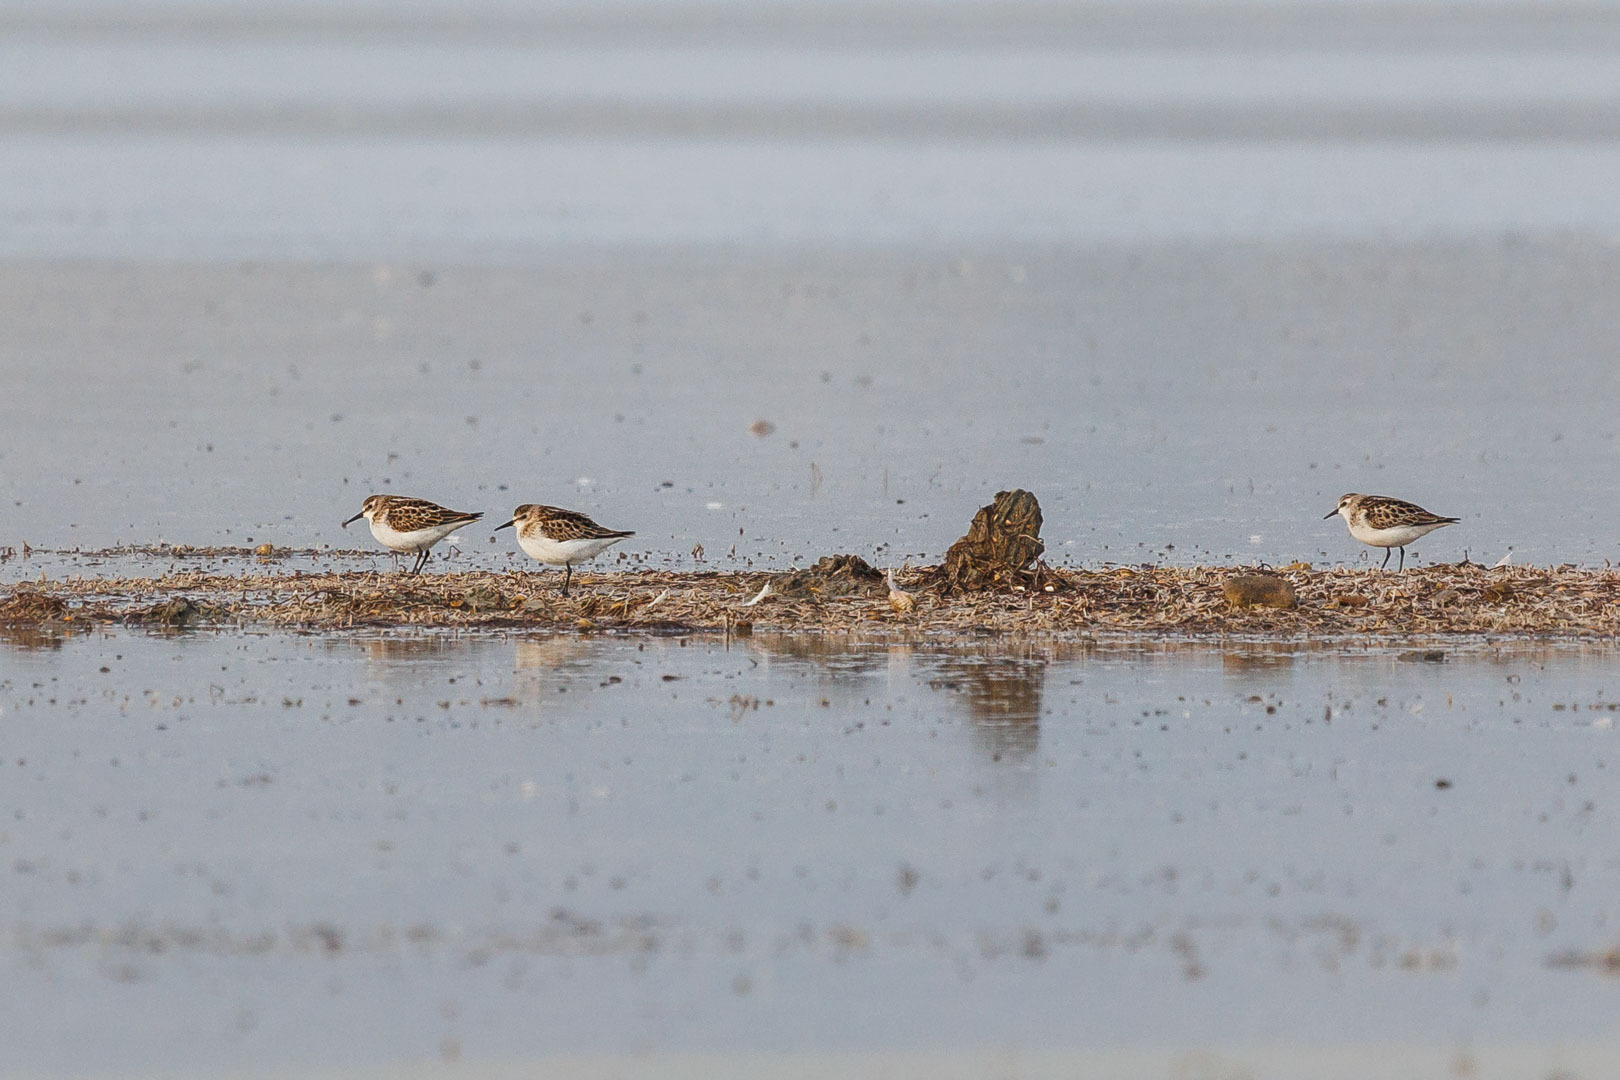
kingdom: Animalia
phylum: Chordata
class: Aves
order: Charadriiformes
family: Scolopacidae
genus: Calidris
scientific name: Calidris minuta
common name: Little stint
